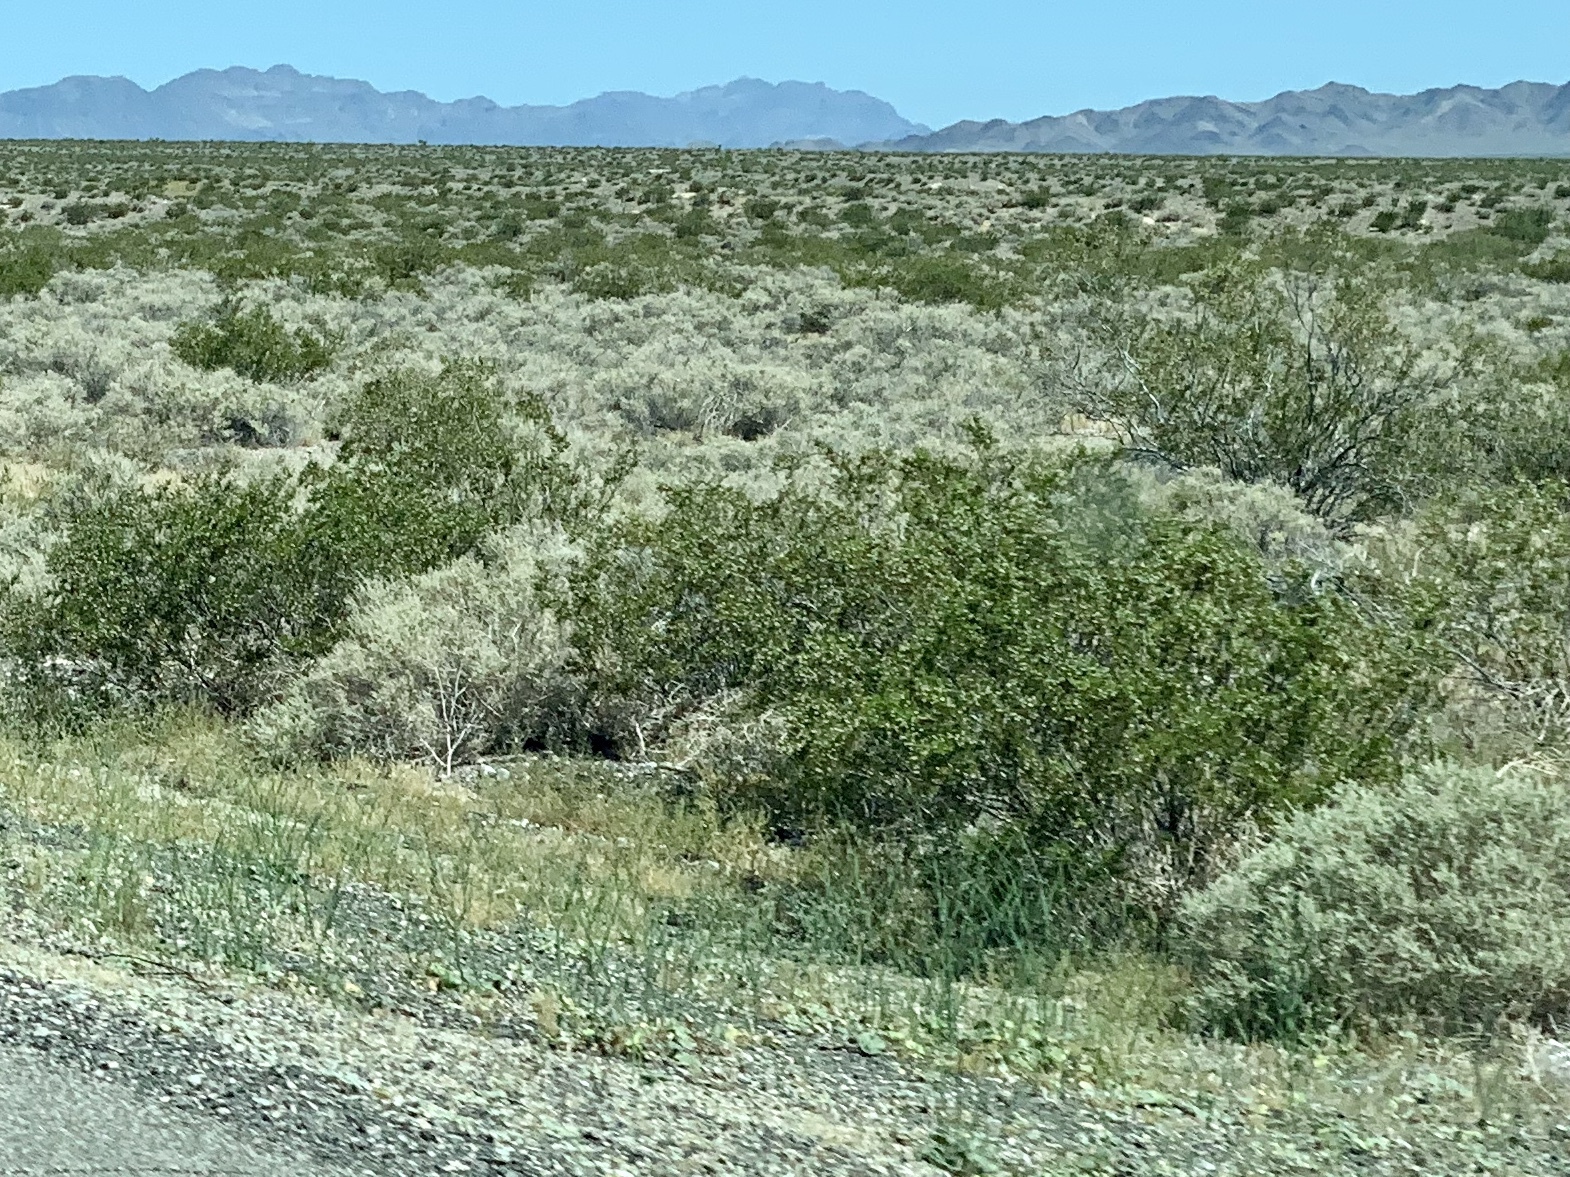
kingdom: Plantae
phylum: Tracheophyta
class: Magnoliopsida
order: Zygophyllales
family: Zygophyllaceae
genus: Larrea
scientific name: Larrea tridentata
